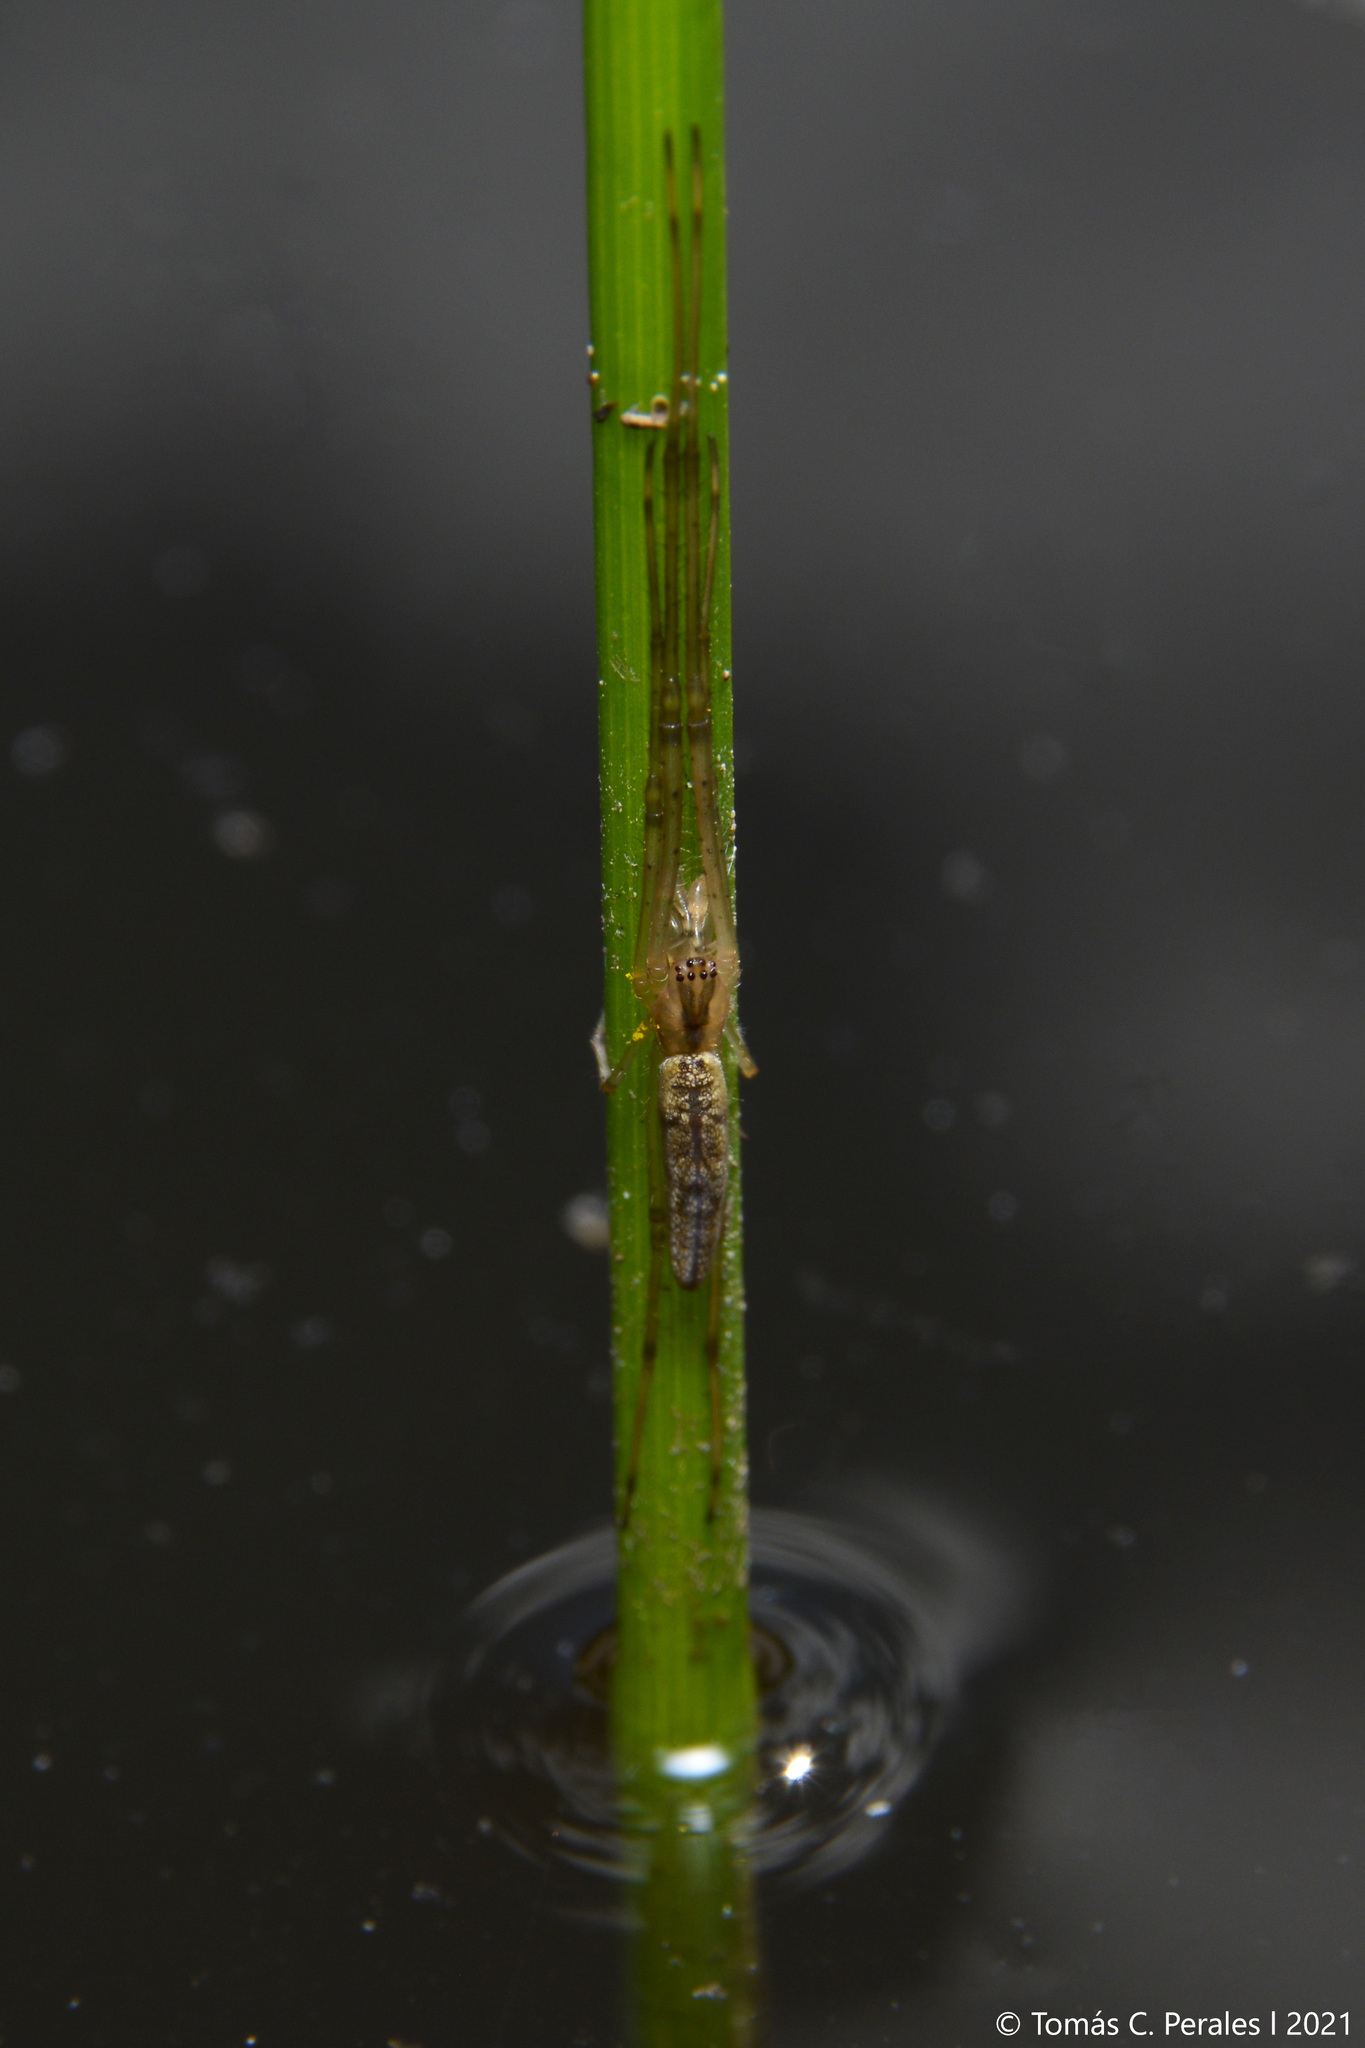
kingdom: Animalia
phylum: Arthropoda
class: Arachnida
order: Araneae
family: Tetragnathidae
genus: Tetragnatha
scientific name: Tetragnatha
